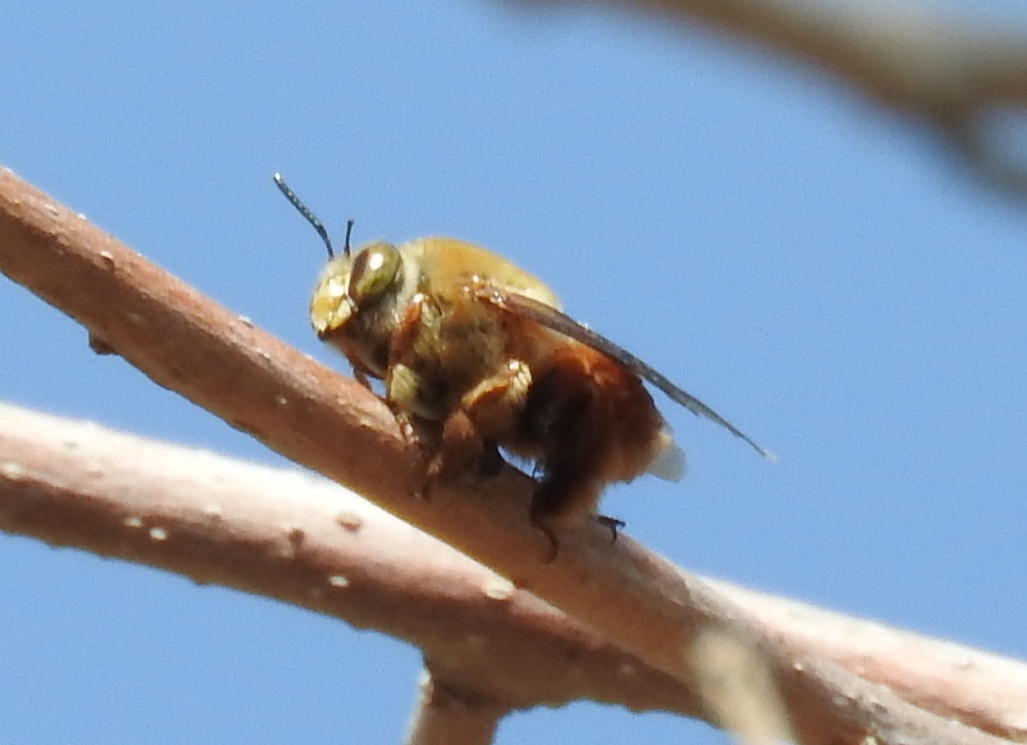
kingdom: Animalia
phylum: Arthropoda
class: Insecta
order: Hymenoptera
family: Apidae
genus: Centris
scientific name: Centris
